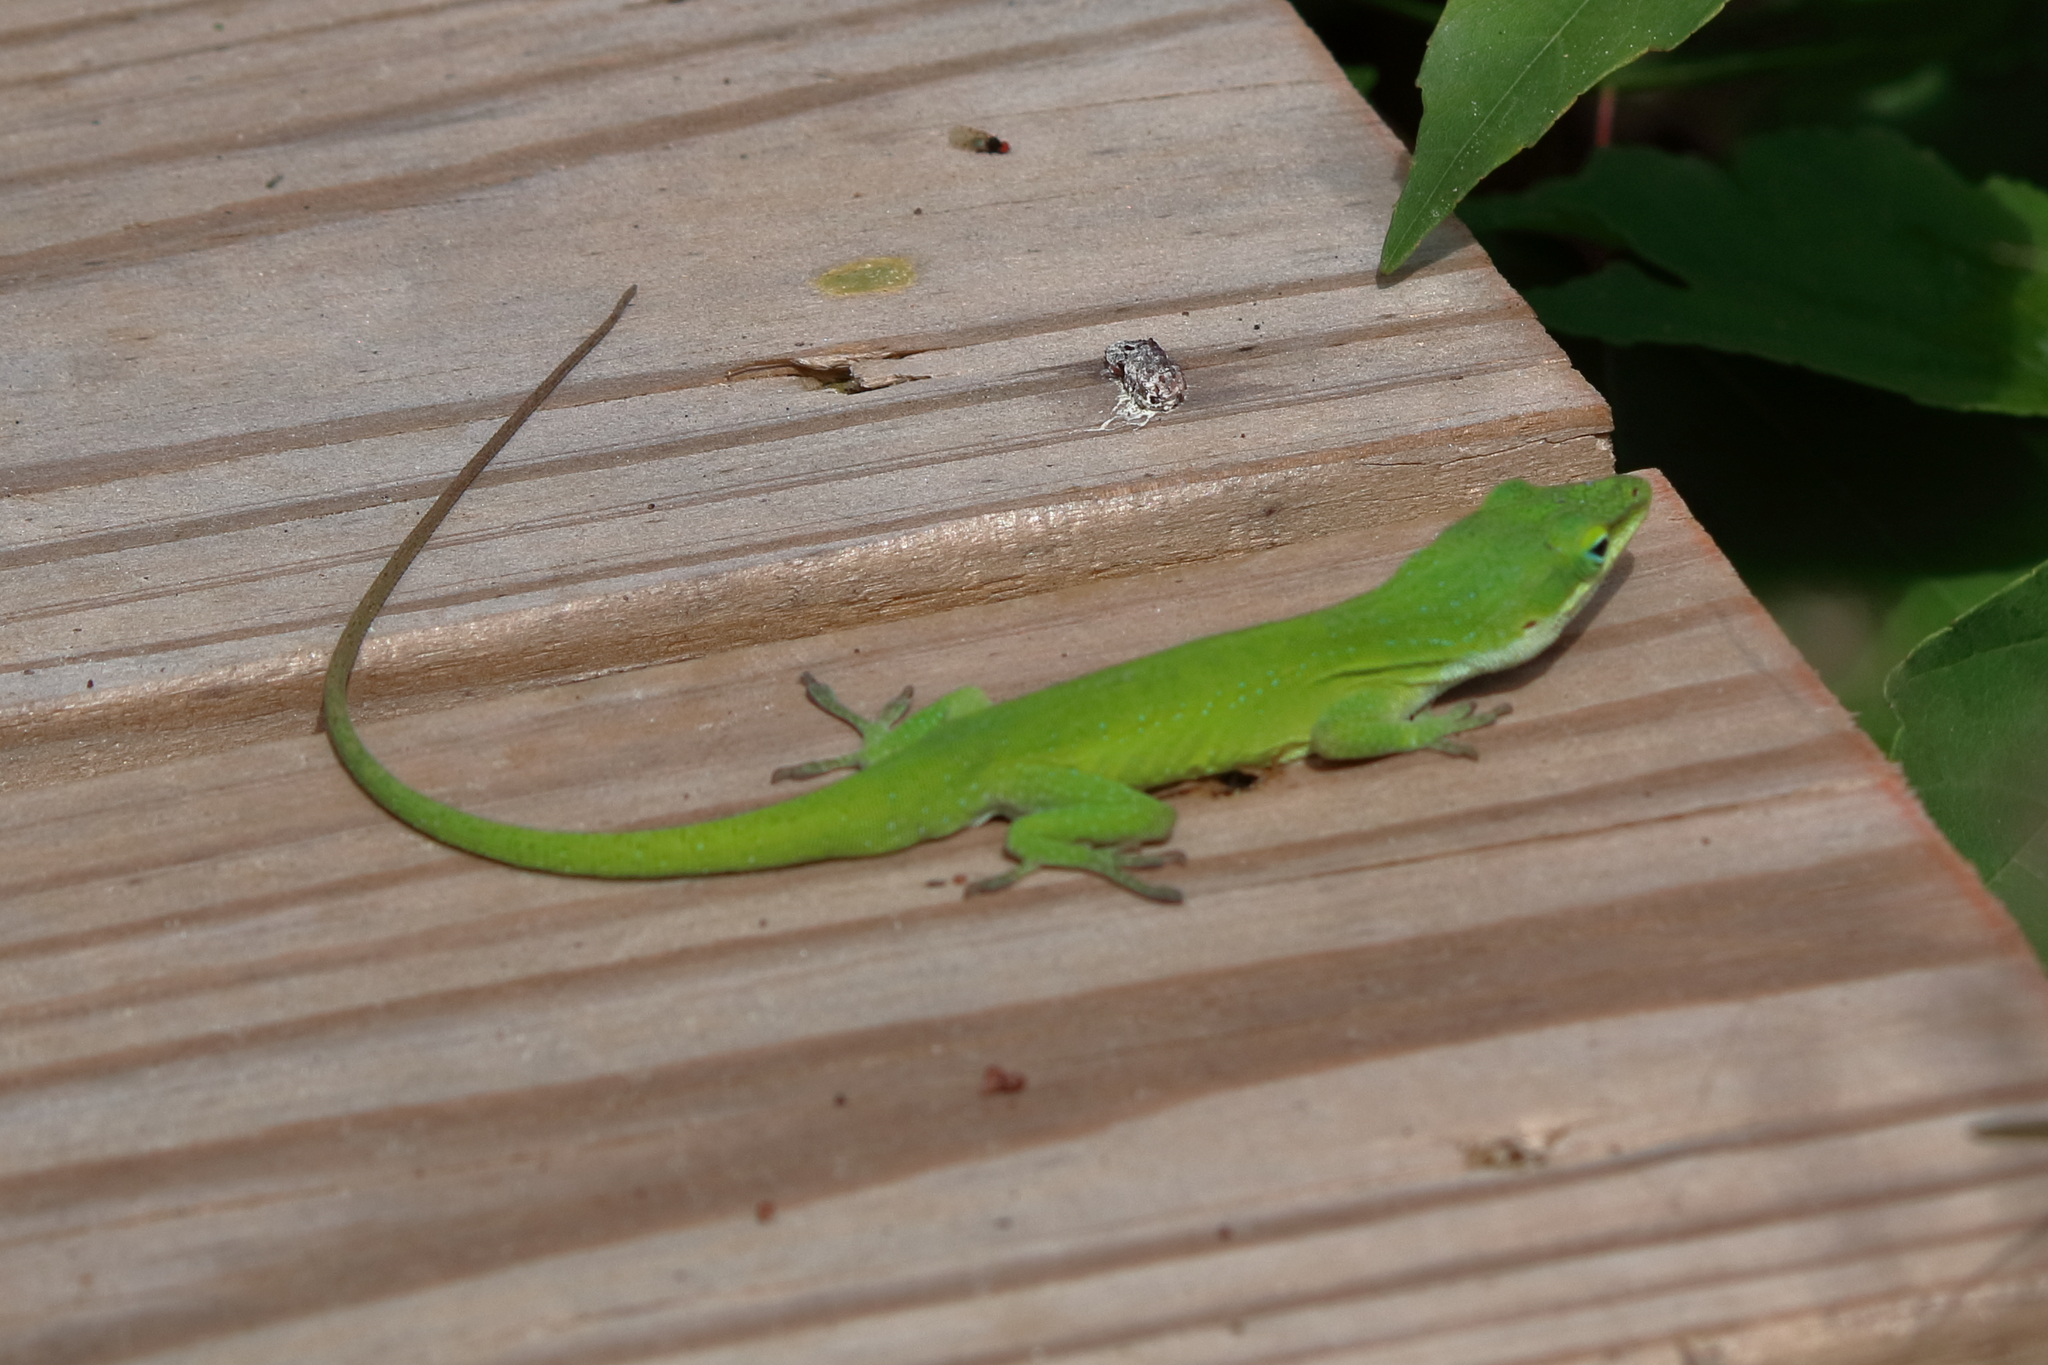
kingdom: Animalia
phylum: Chordata
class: Squamata
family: Dactyloidae
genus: Anolis
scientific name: Anolis carolinensis
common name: Green anole
